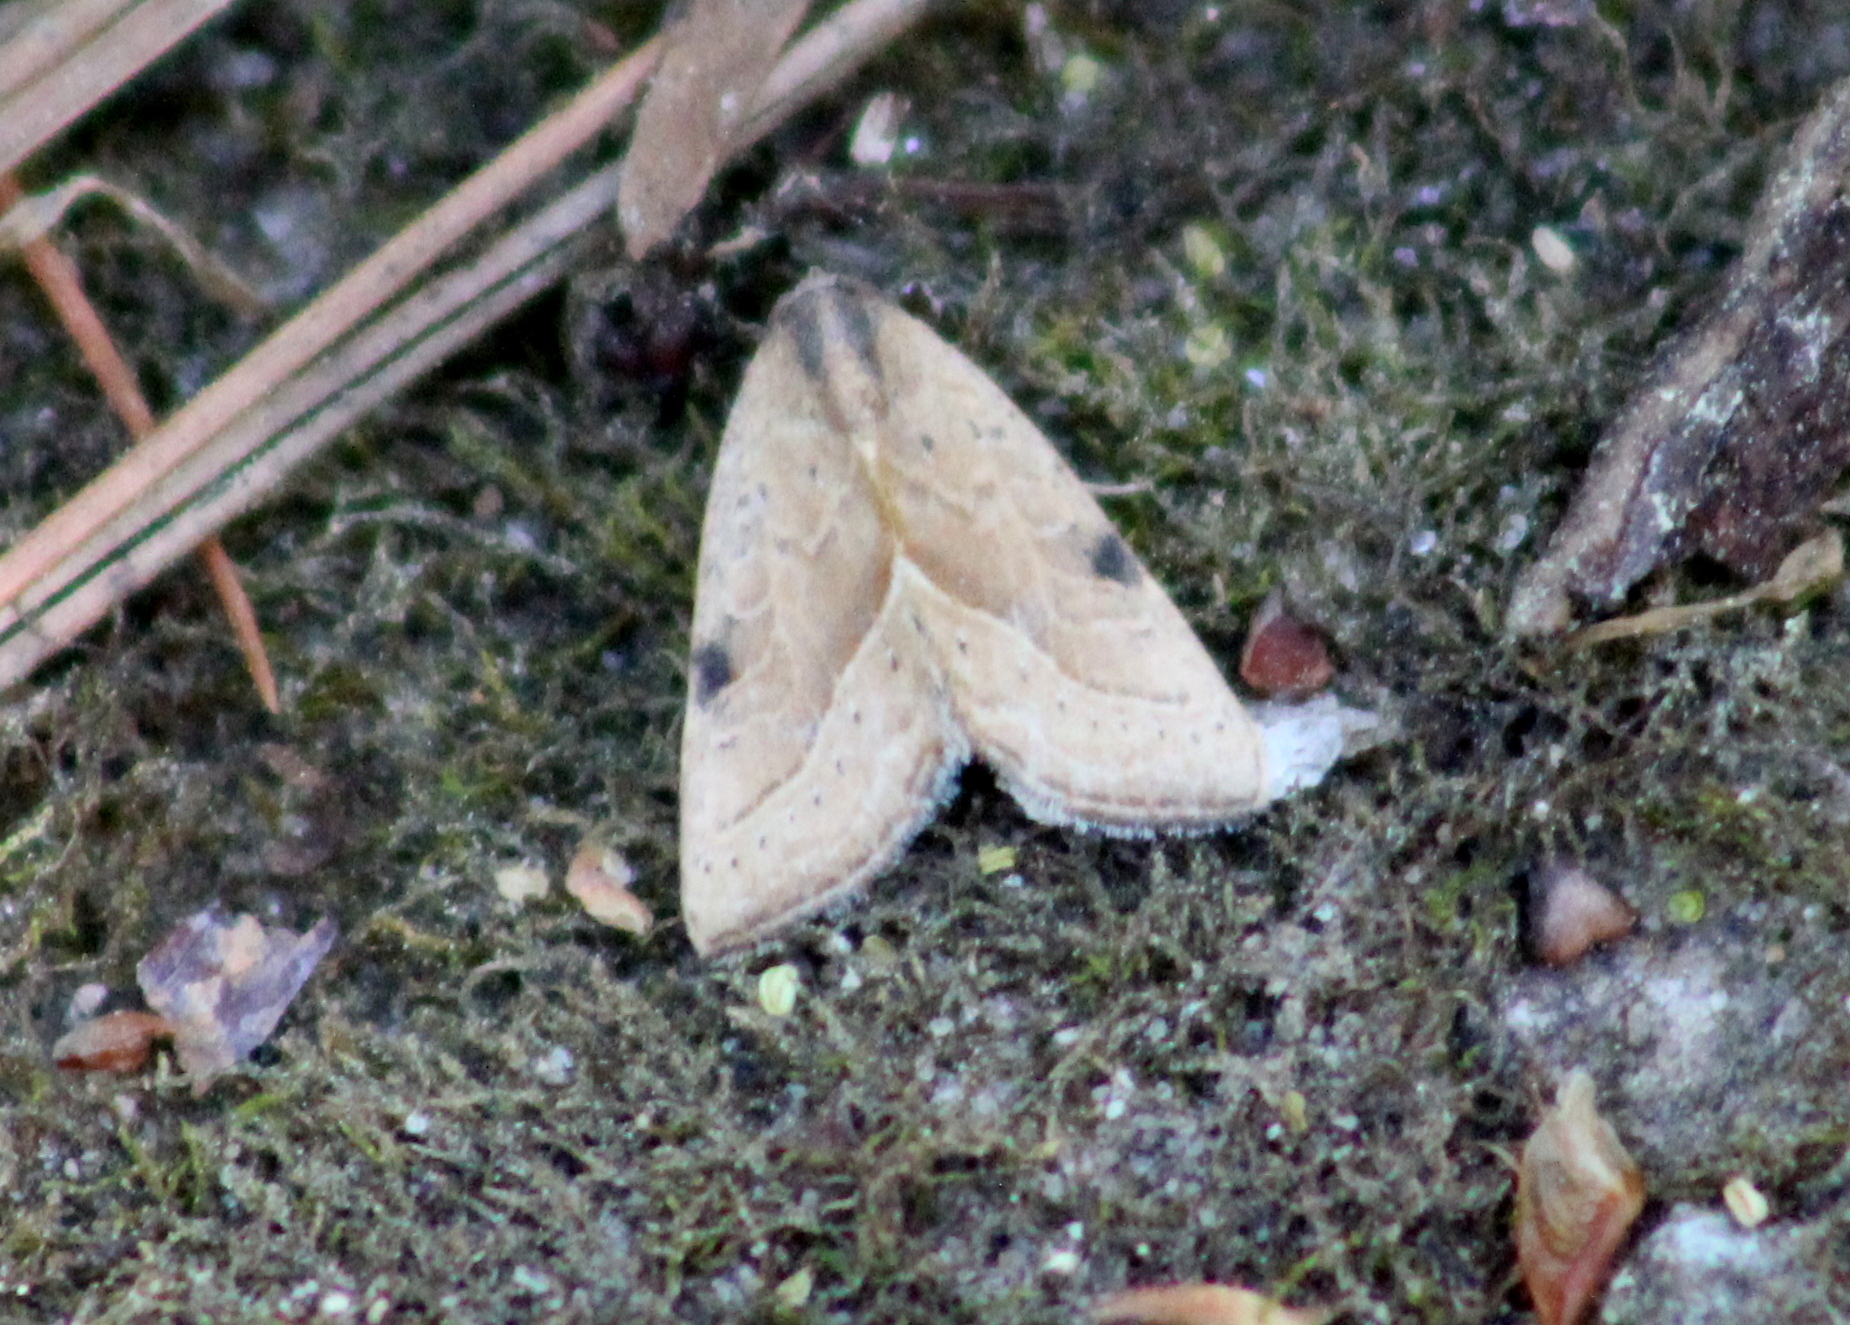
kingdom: Animalia
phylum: Arthropoda
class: Insecta
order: Lepidoptera
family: Noctuidae
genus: Galgula
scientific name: Galgula partita
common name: Wedgeling
